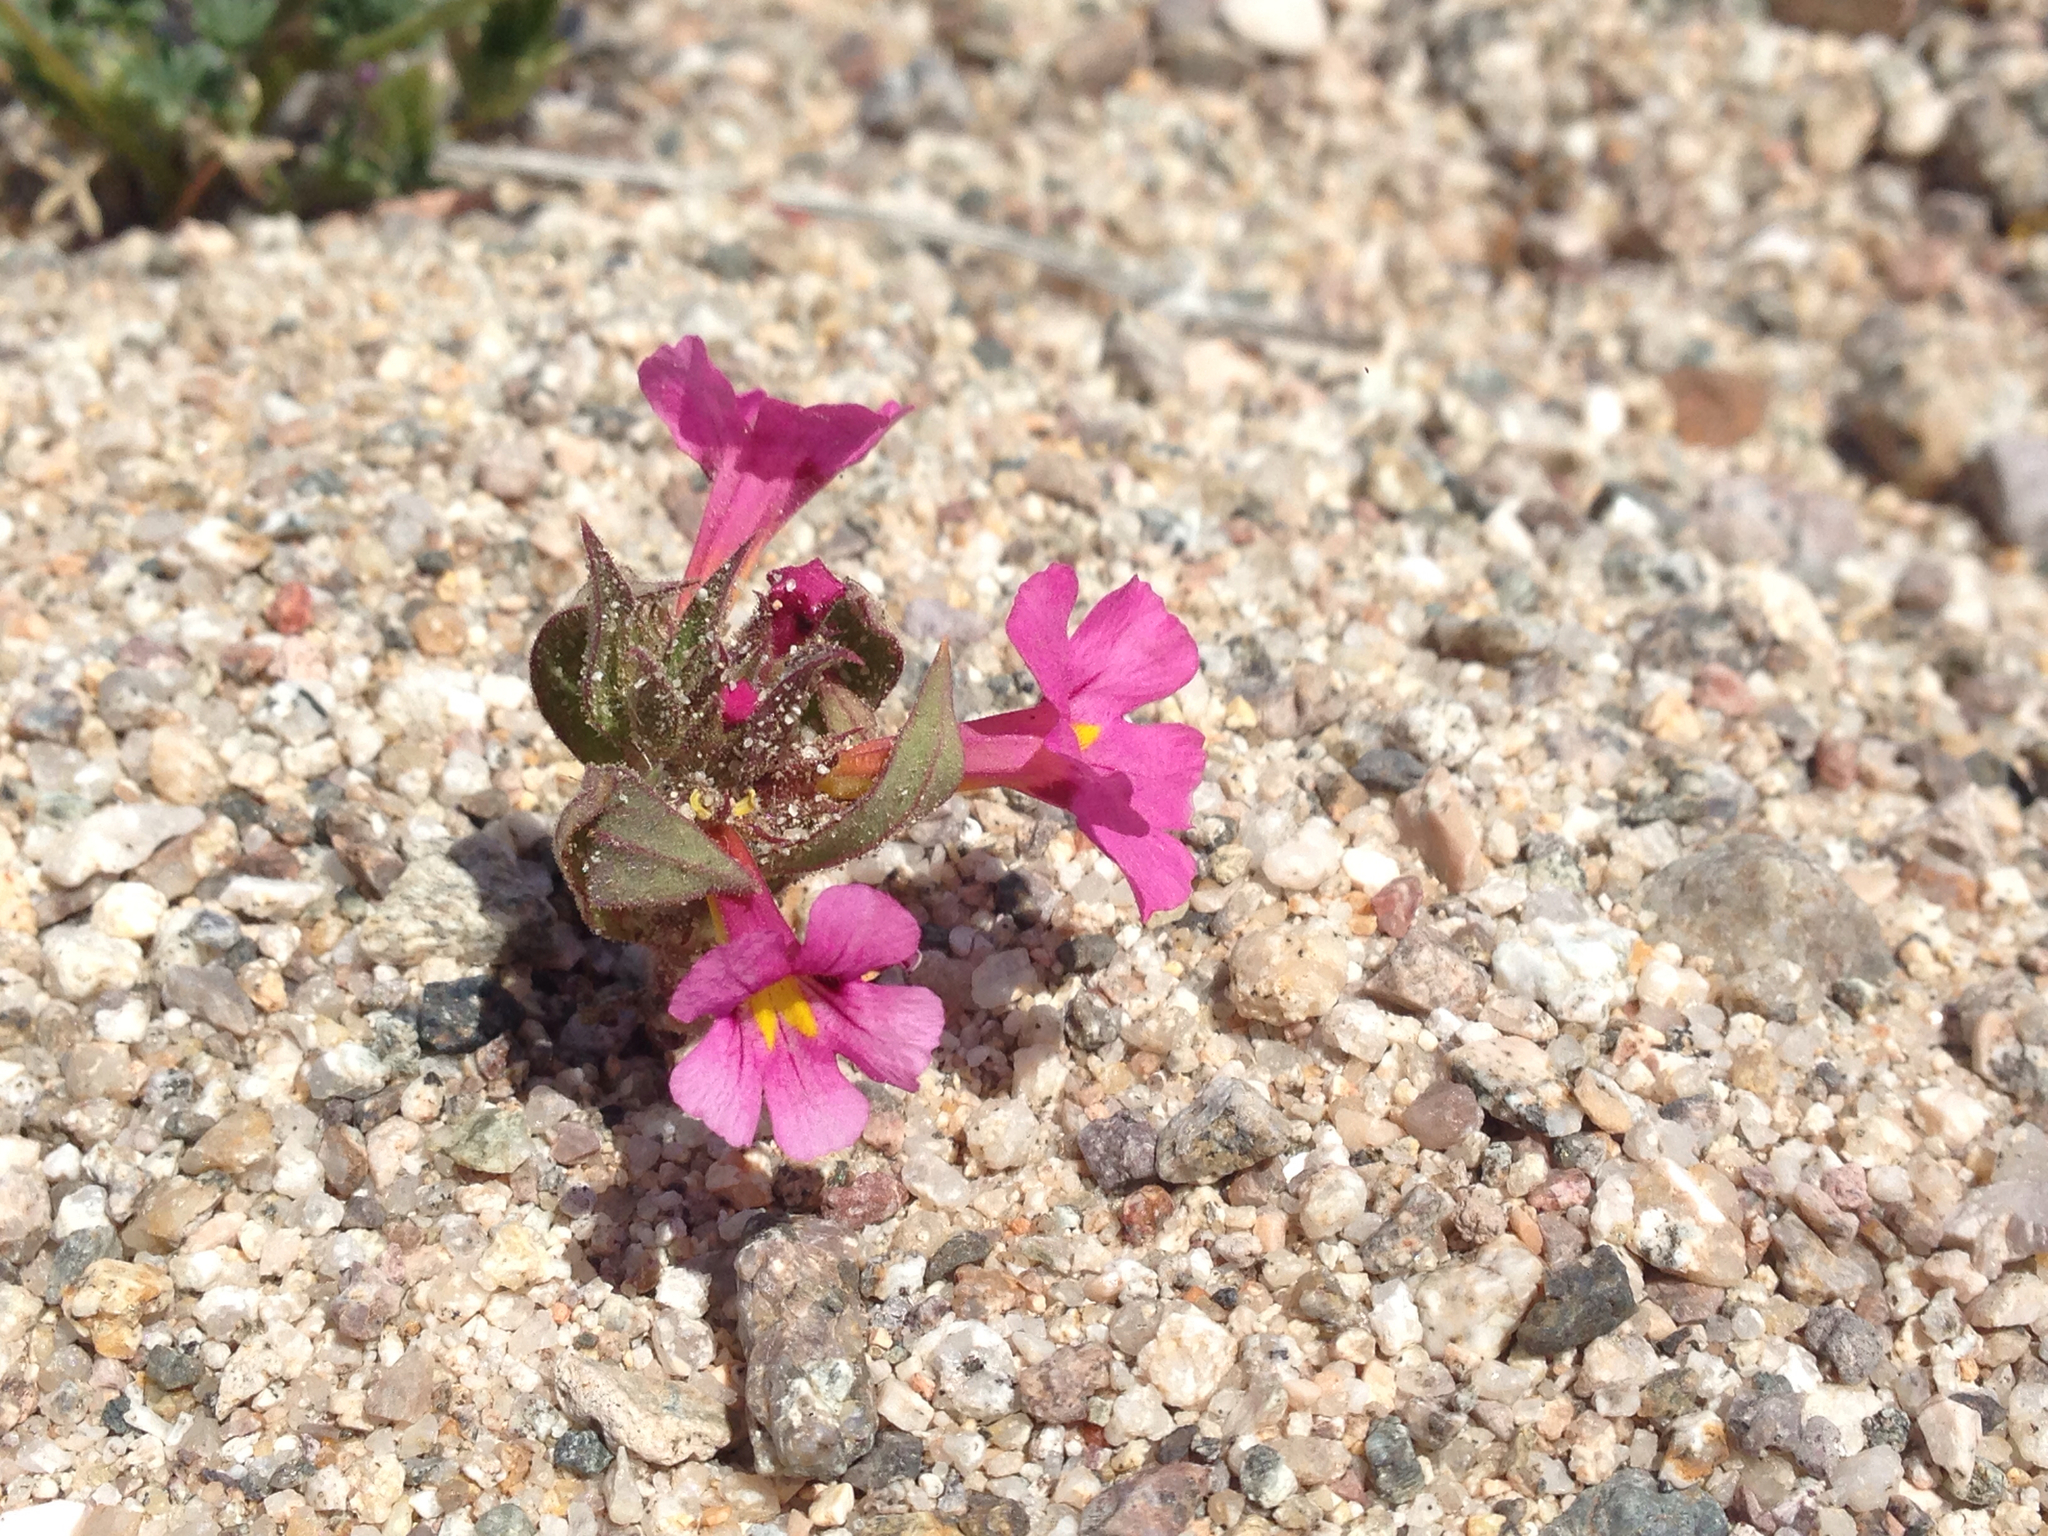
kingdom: Plantae
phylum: Tracheophyta
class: Magnoliopsida
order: Lamiales
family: Phrymaceae
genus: Diplacus
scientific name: Diplacus bigelovii
